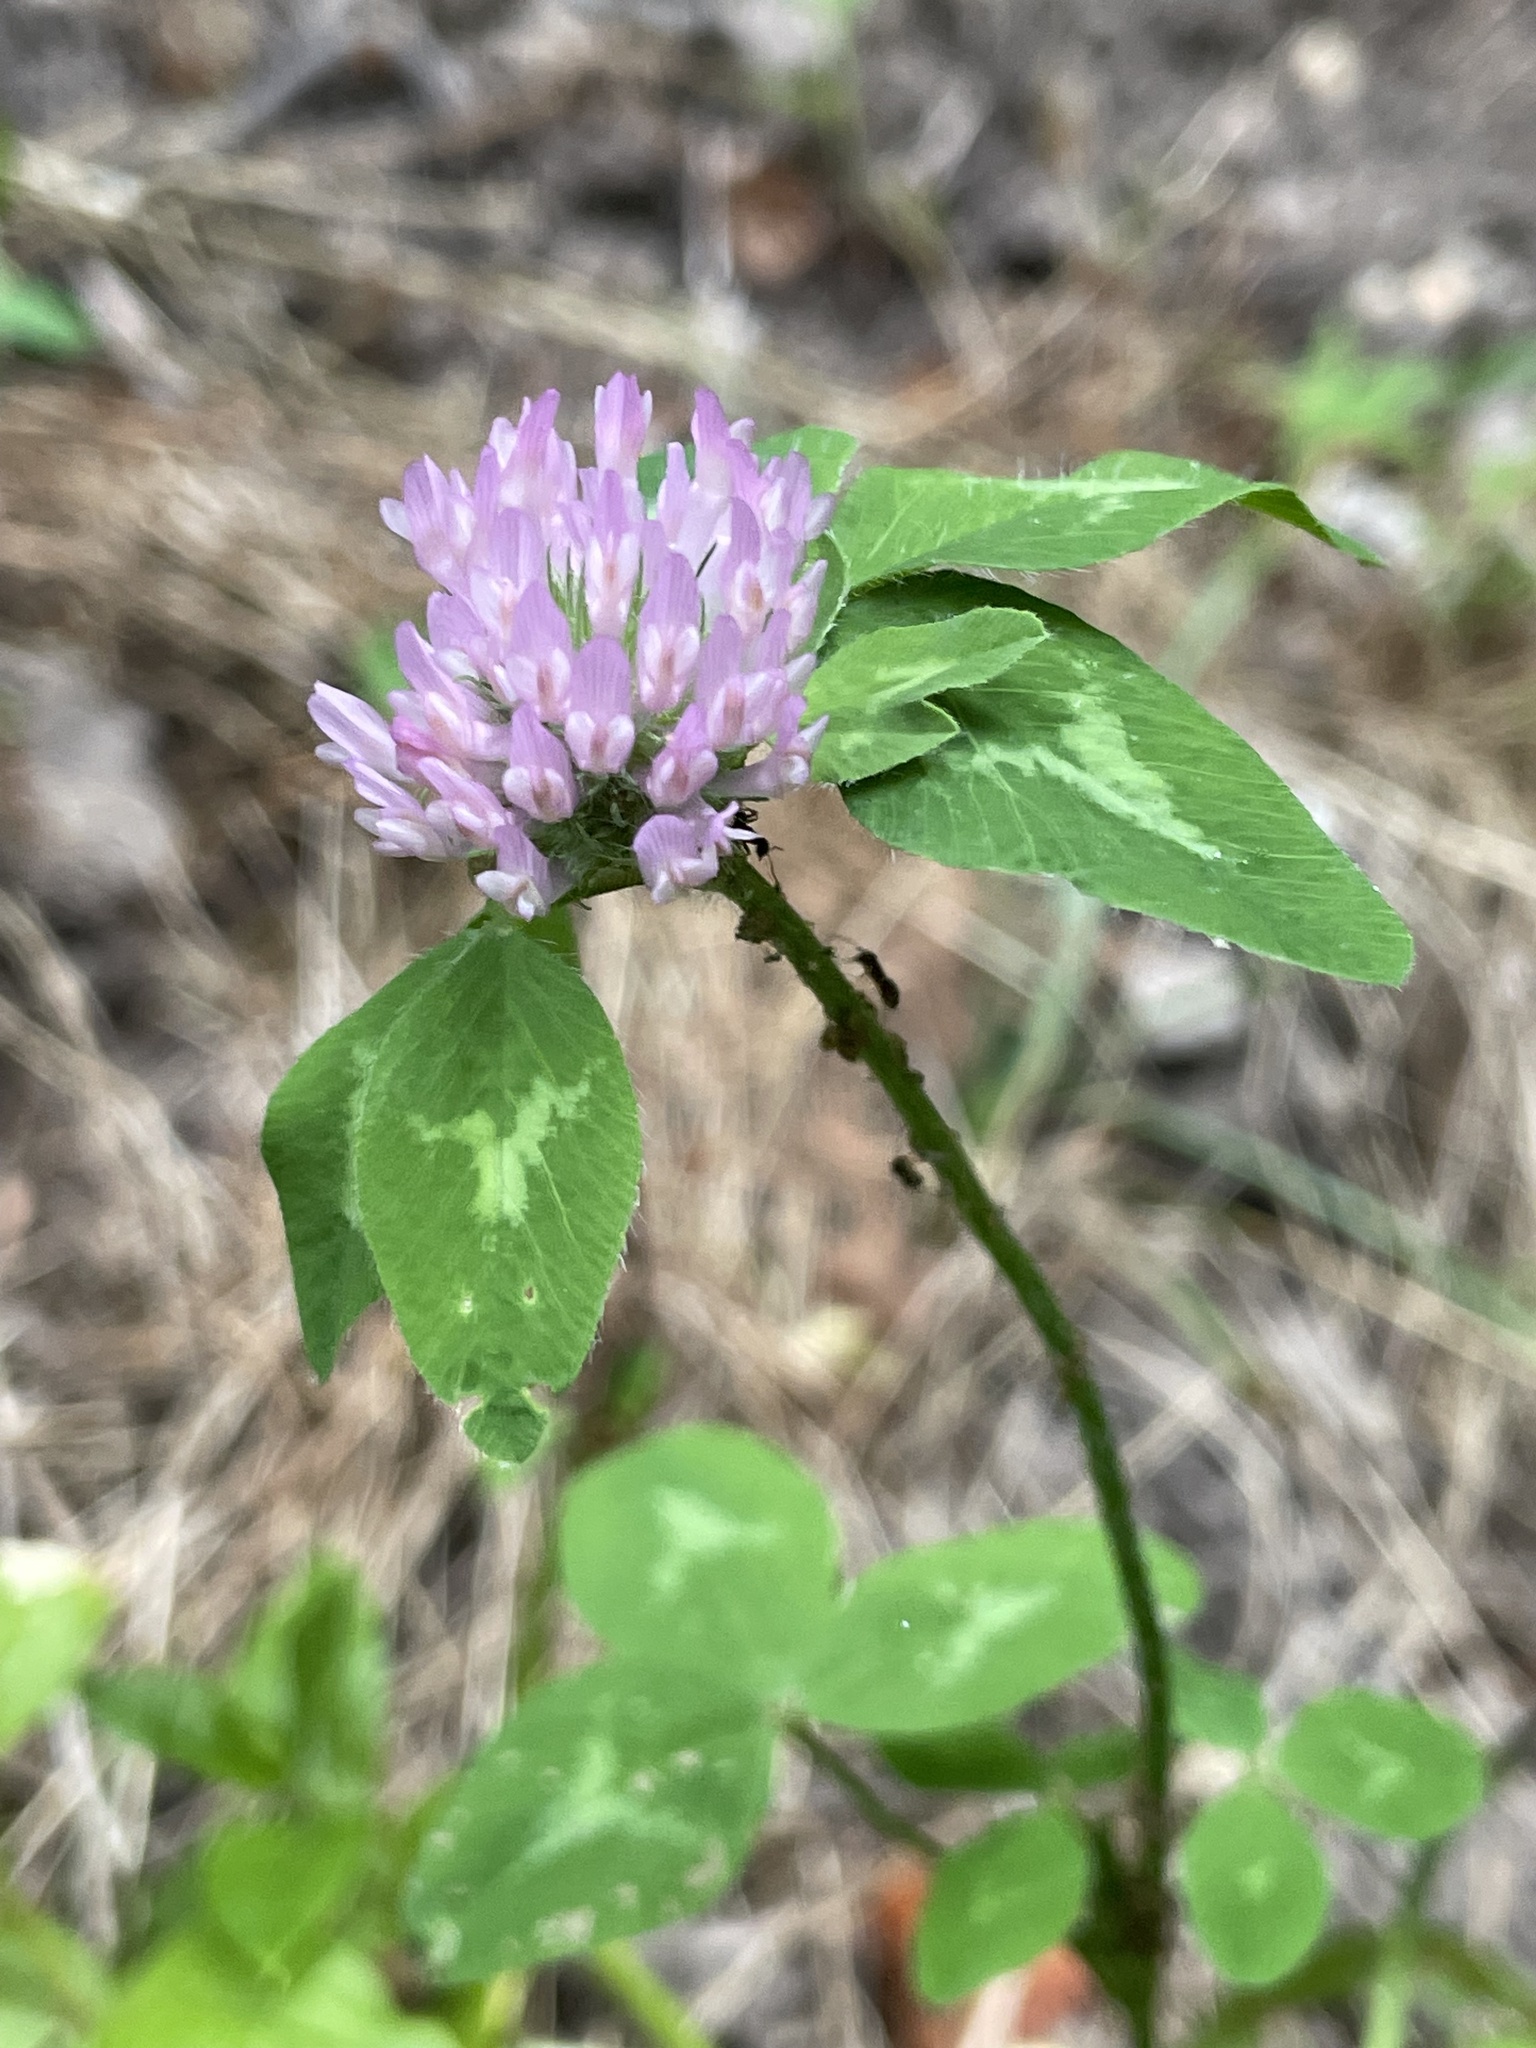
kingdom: Plantae
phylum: Tracheophyta
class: Magnoliopsida
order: Fabales
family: Fabaceae
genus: Trifolium
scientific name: Trifolium pratense
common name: Red clover
